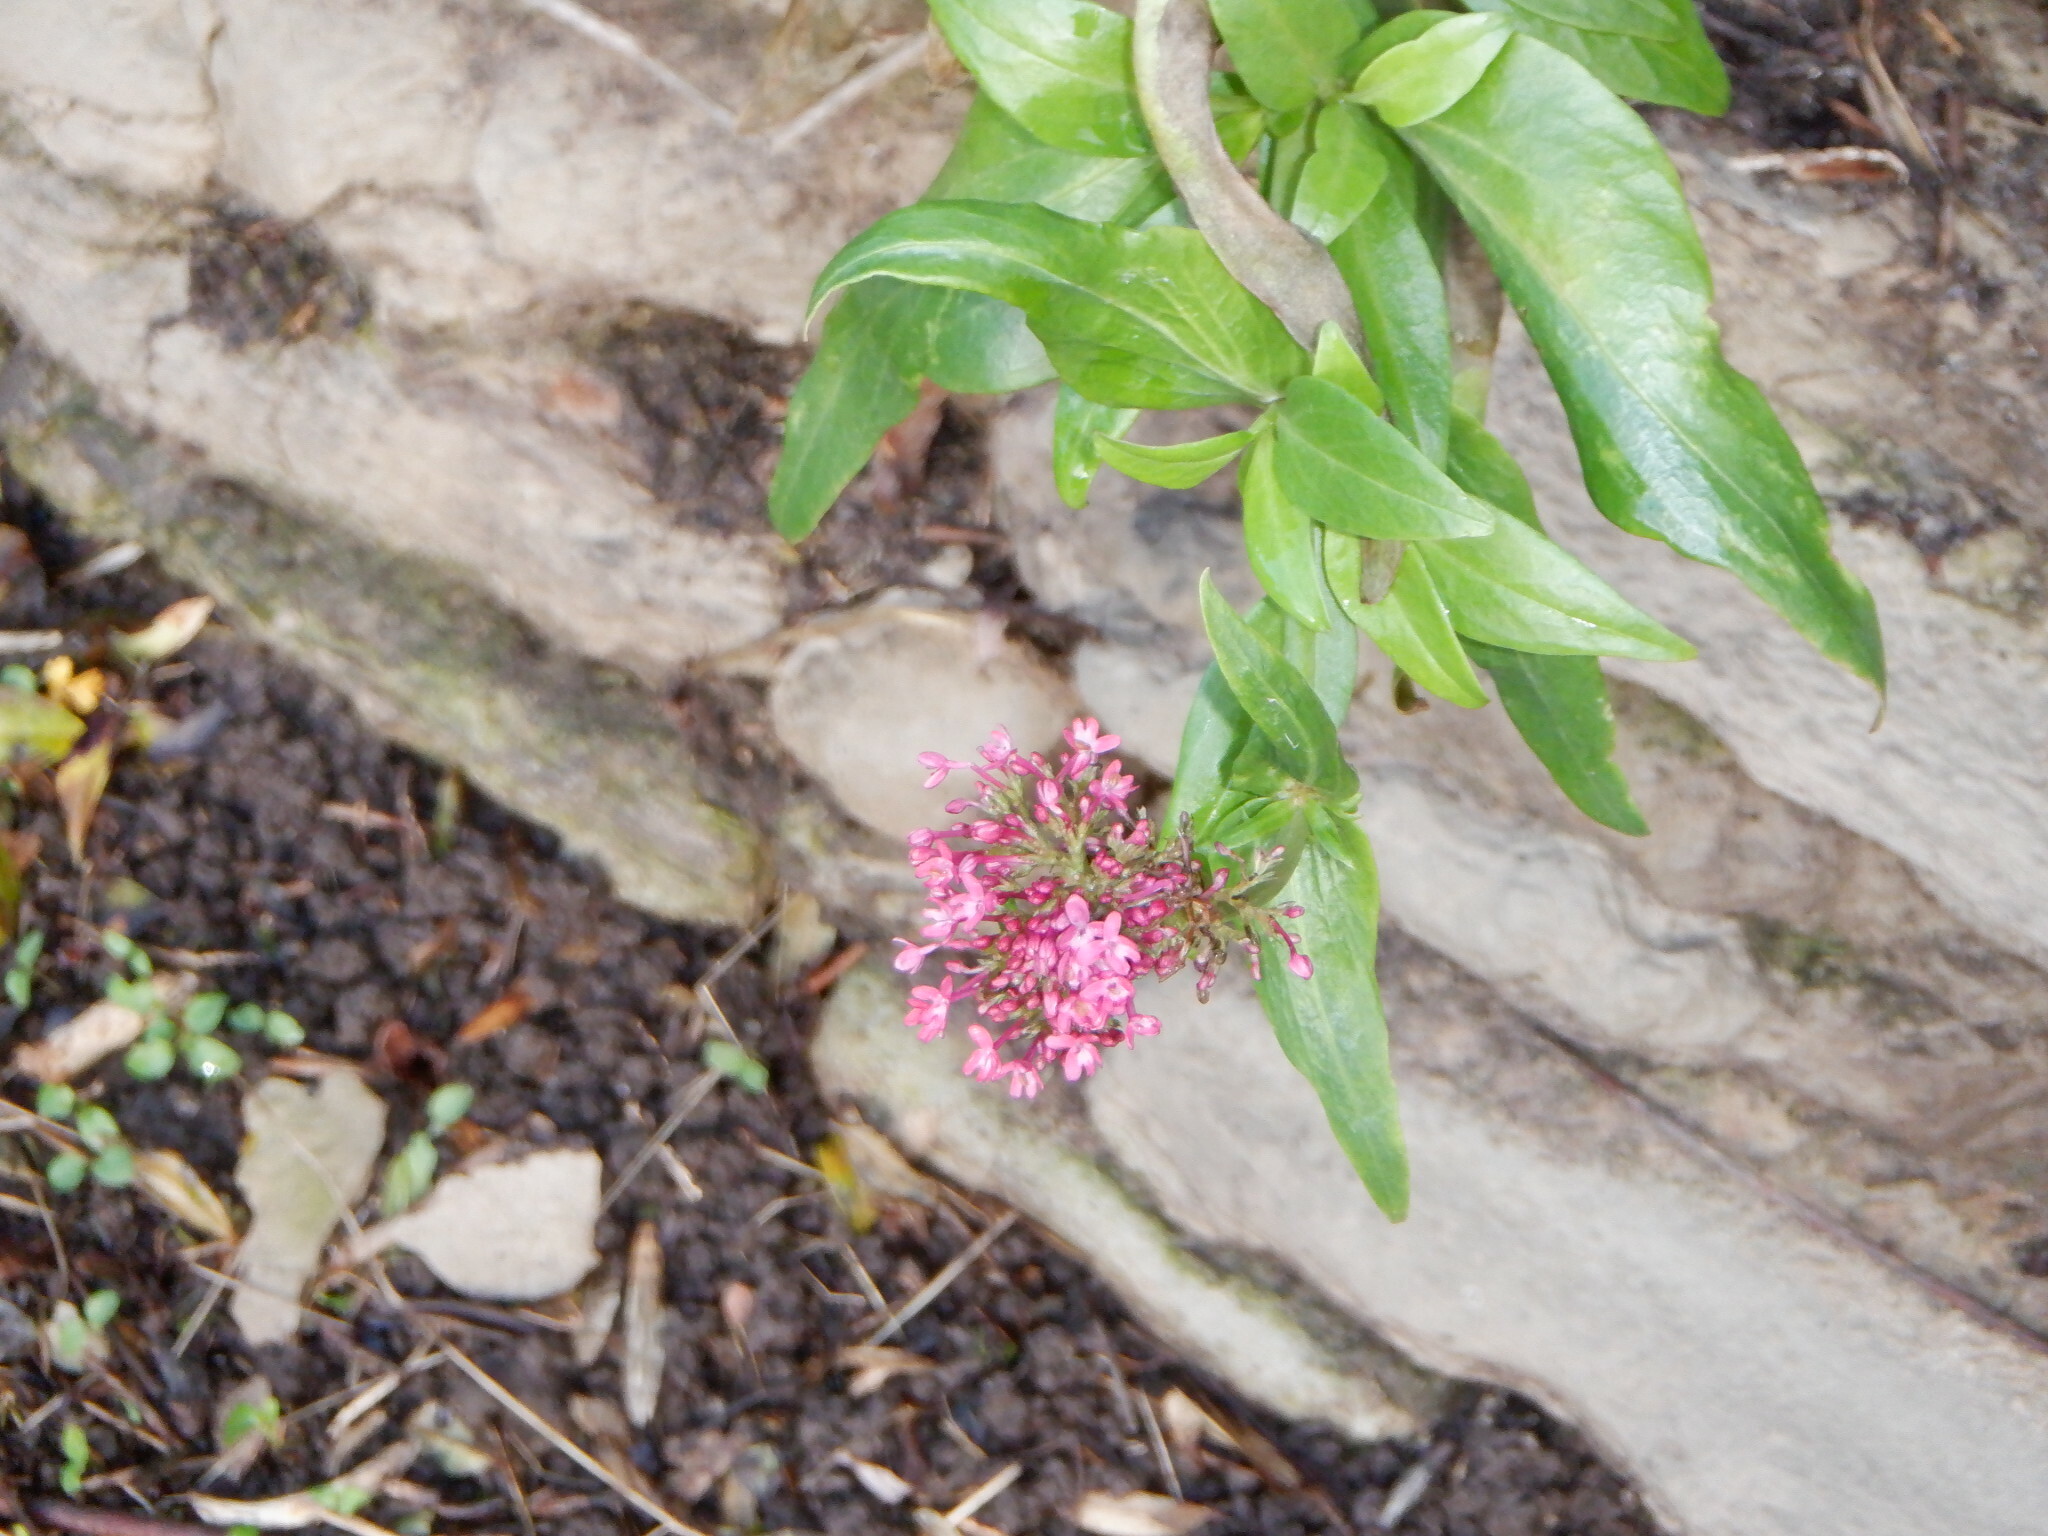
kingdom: Plantae
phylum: Tracheophyta
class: Magnoliopsida
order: Dipsacales
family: Caprifoliaceae
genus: Centranthus
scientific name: Centranthus ruber
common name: Red valerian
